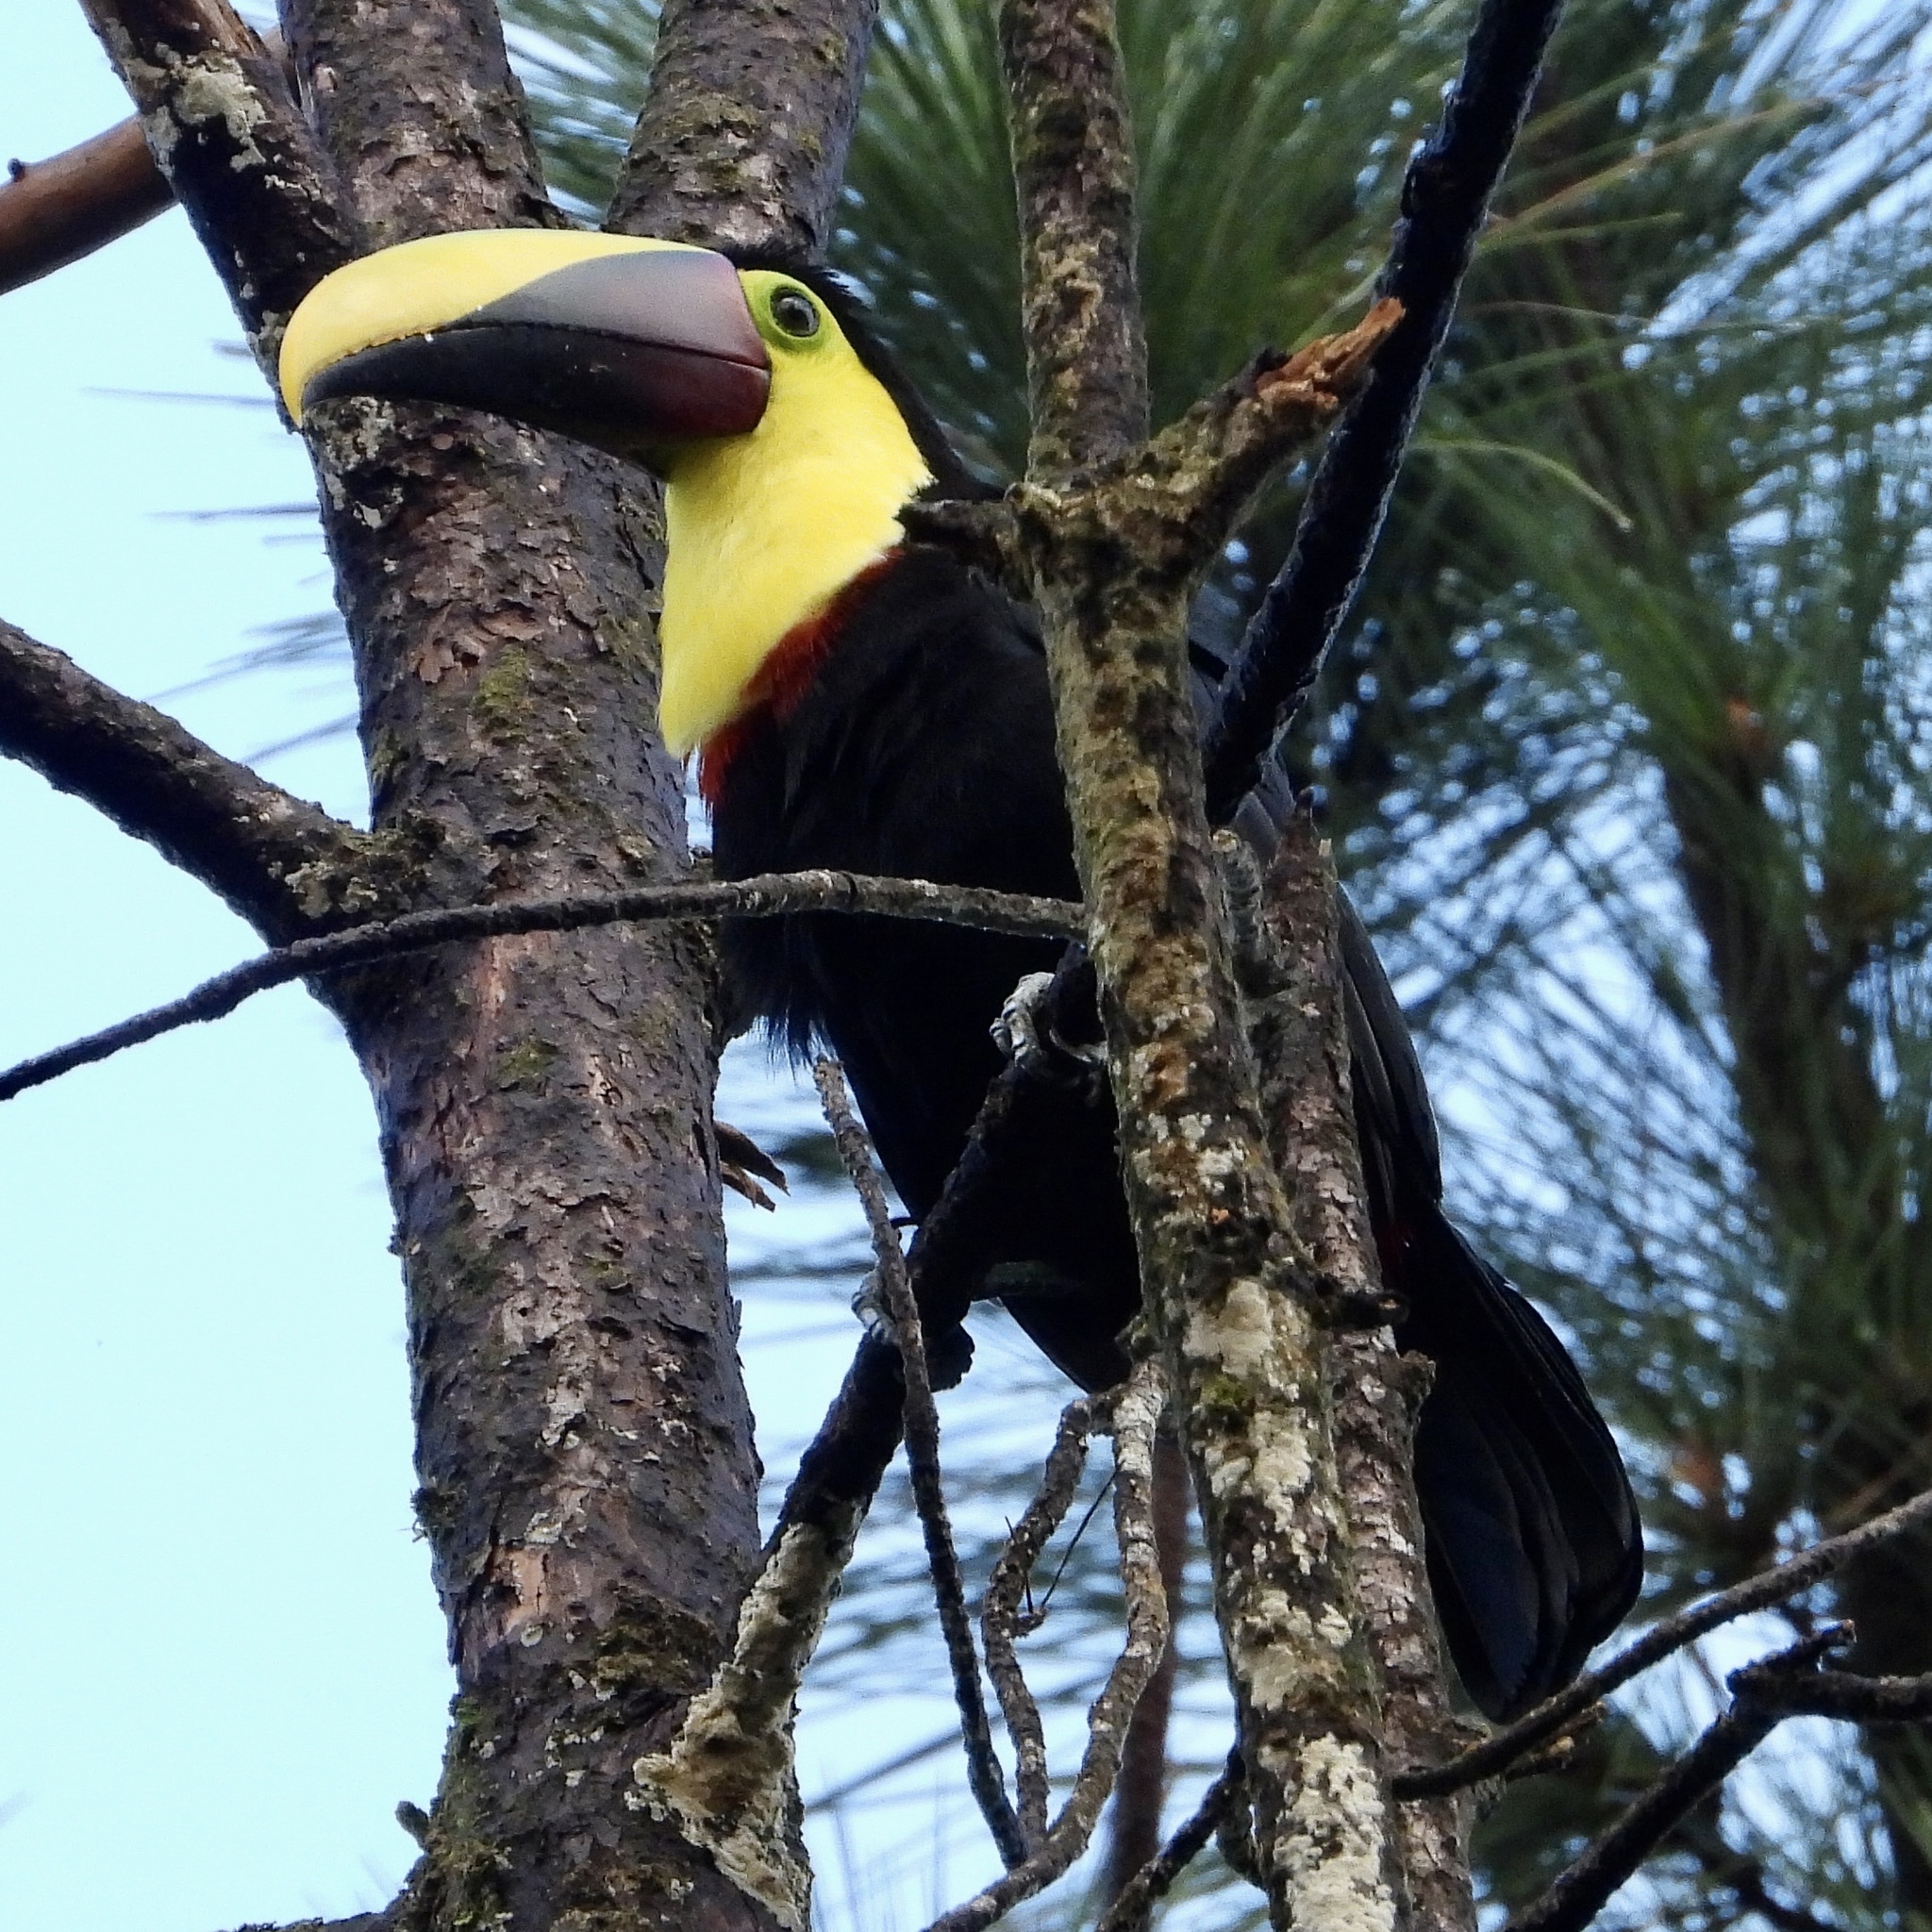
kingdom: Animalia
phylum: Chordata
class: Aves
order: Piciformes
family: Ramphastidae
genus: Ramphastos
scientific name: Ramphastos ambiguus
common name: Yellow-throated toucan
